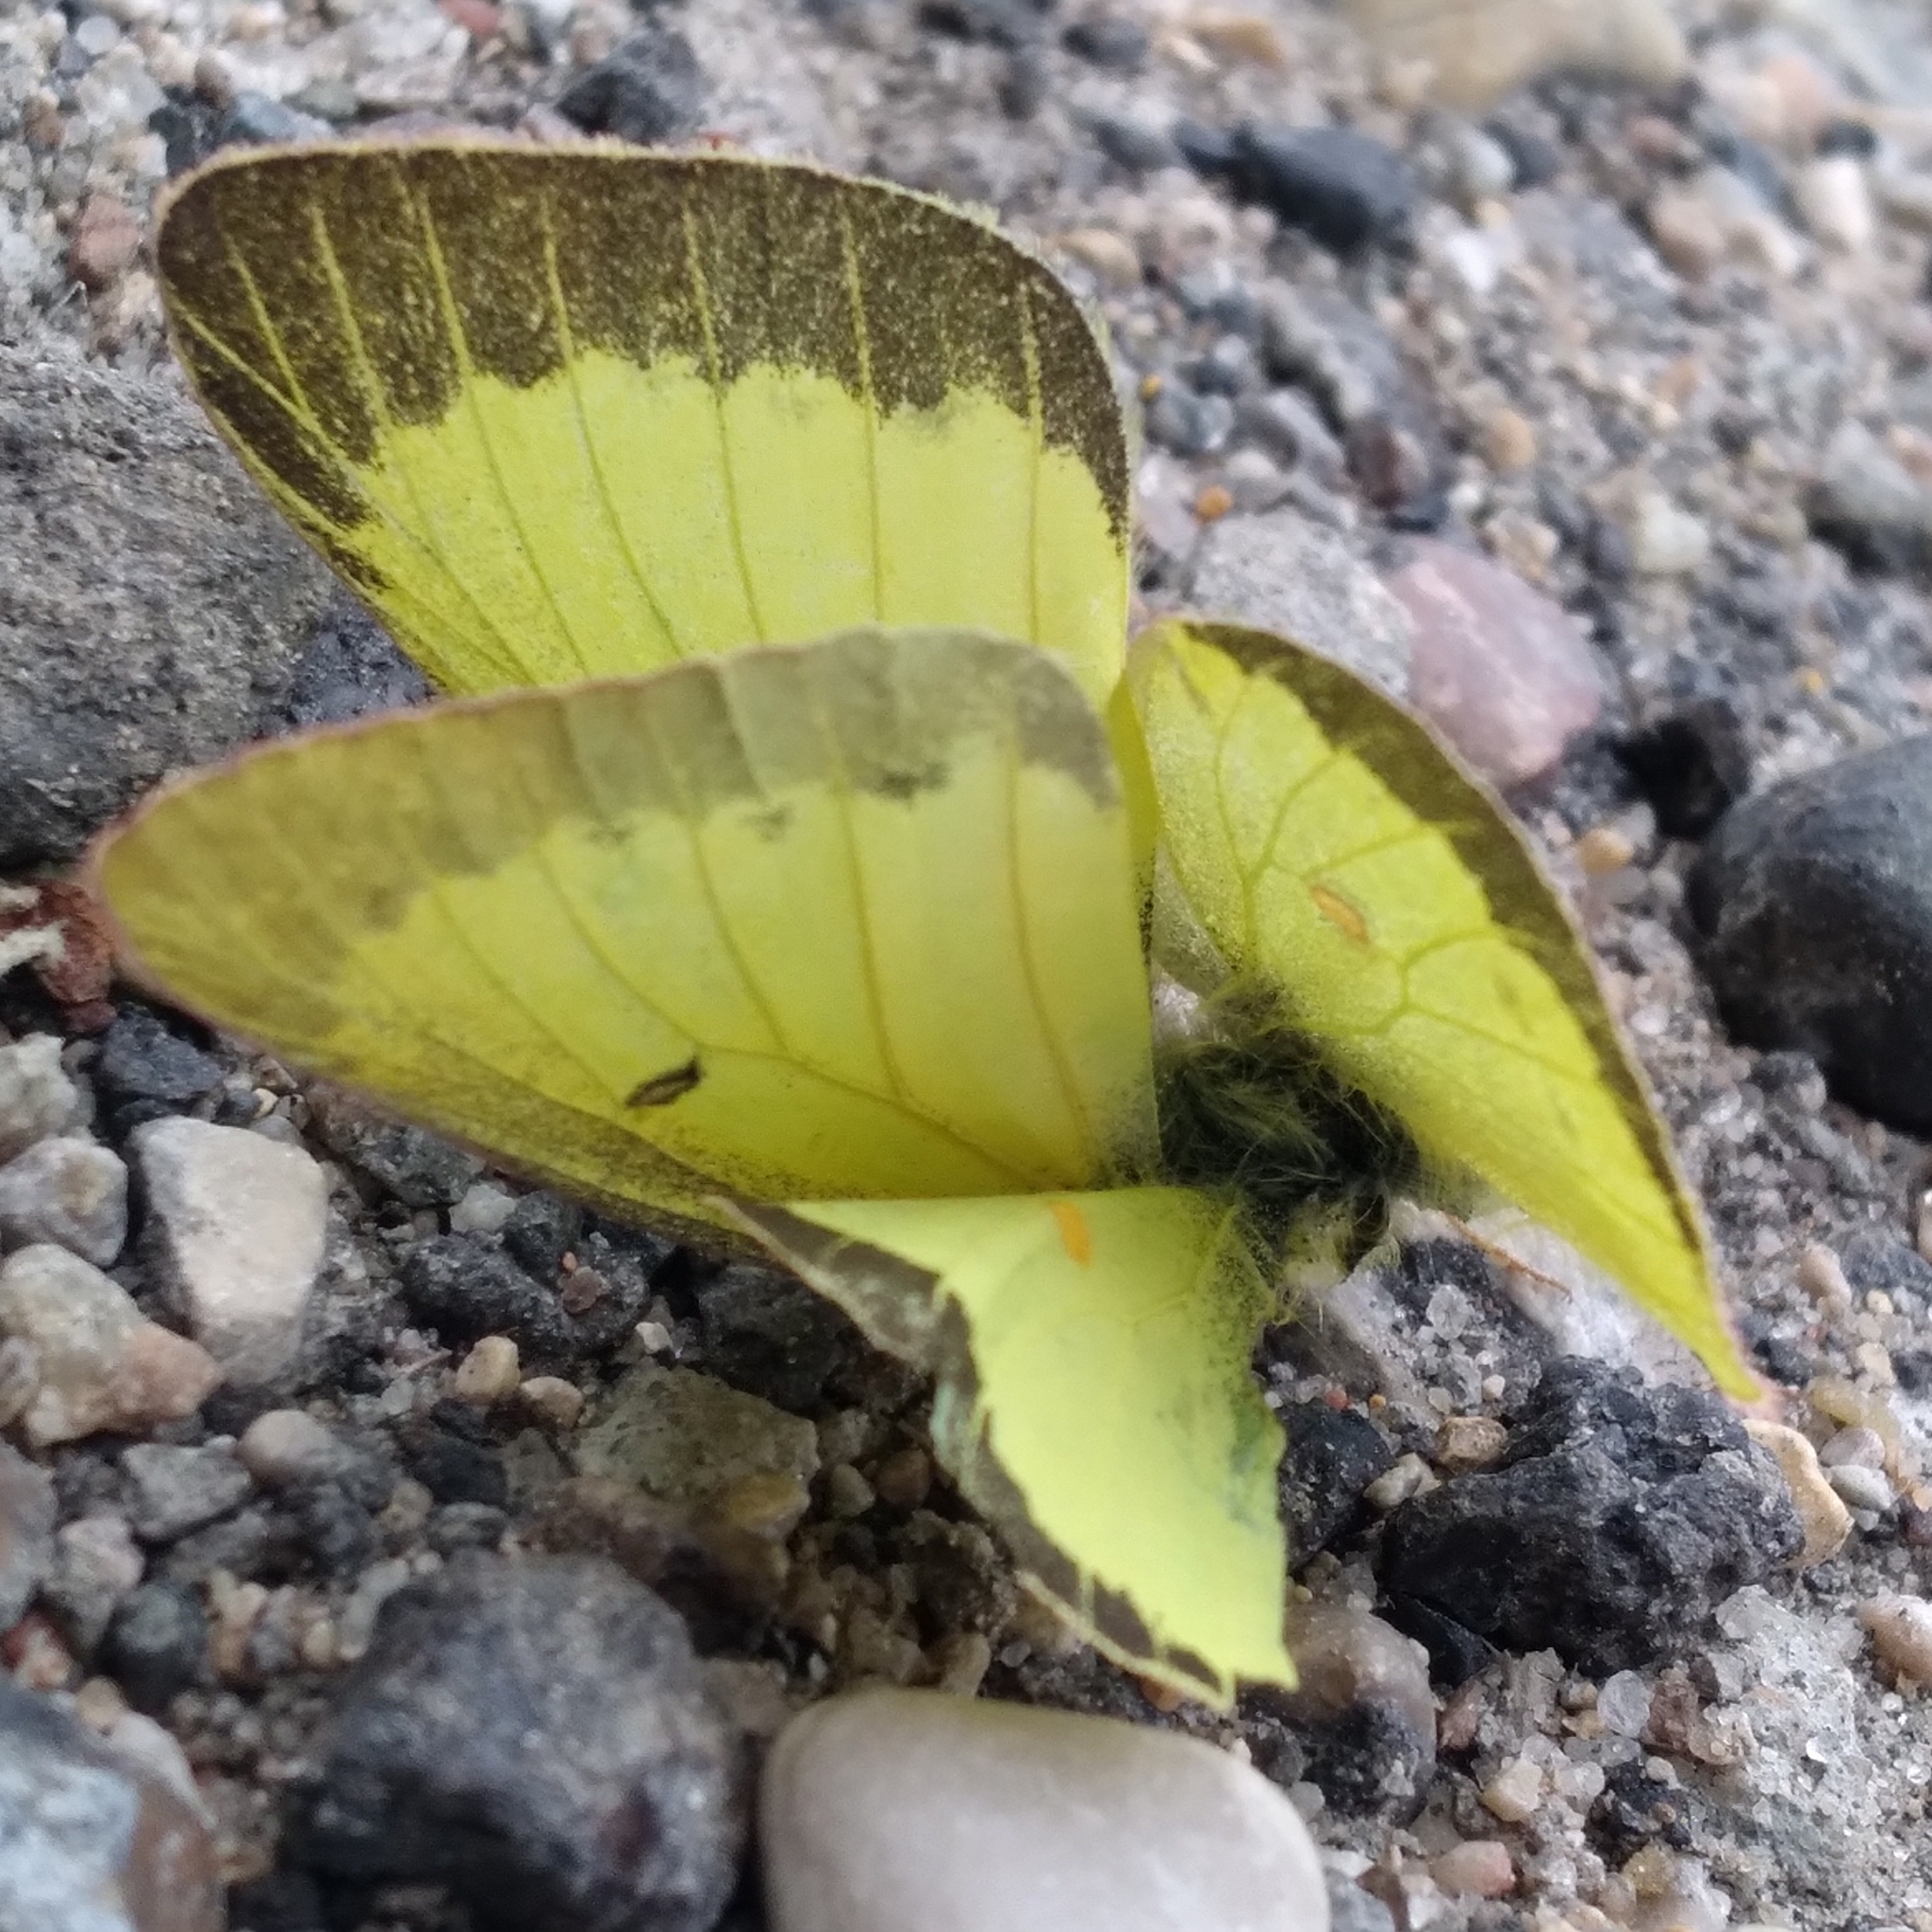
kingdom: Animalia
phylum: Arthropoda
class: Insecta
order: Lepidoptera
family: Pieridae
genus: Colias
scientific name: Colias philodice
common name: Clouded sulphur
